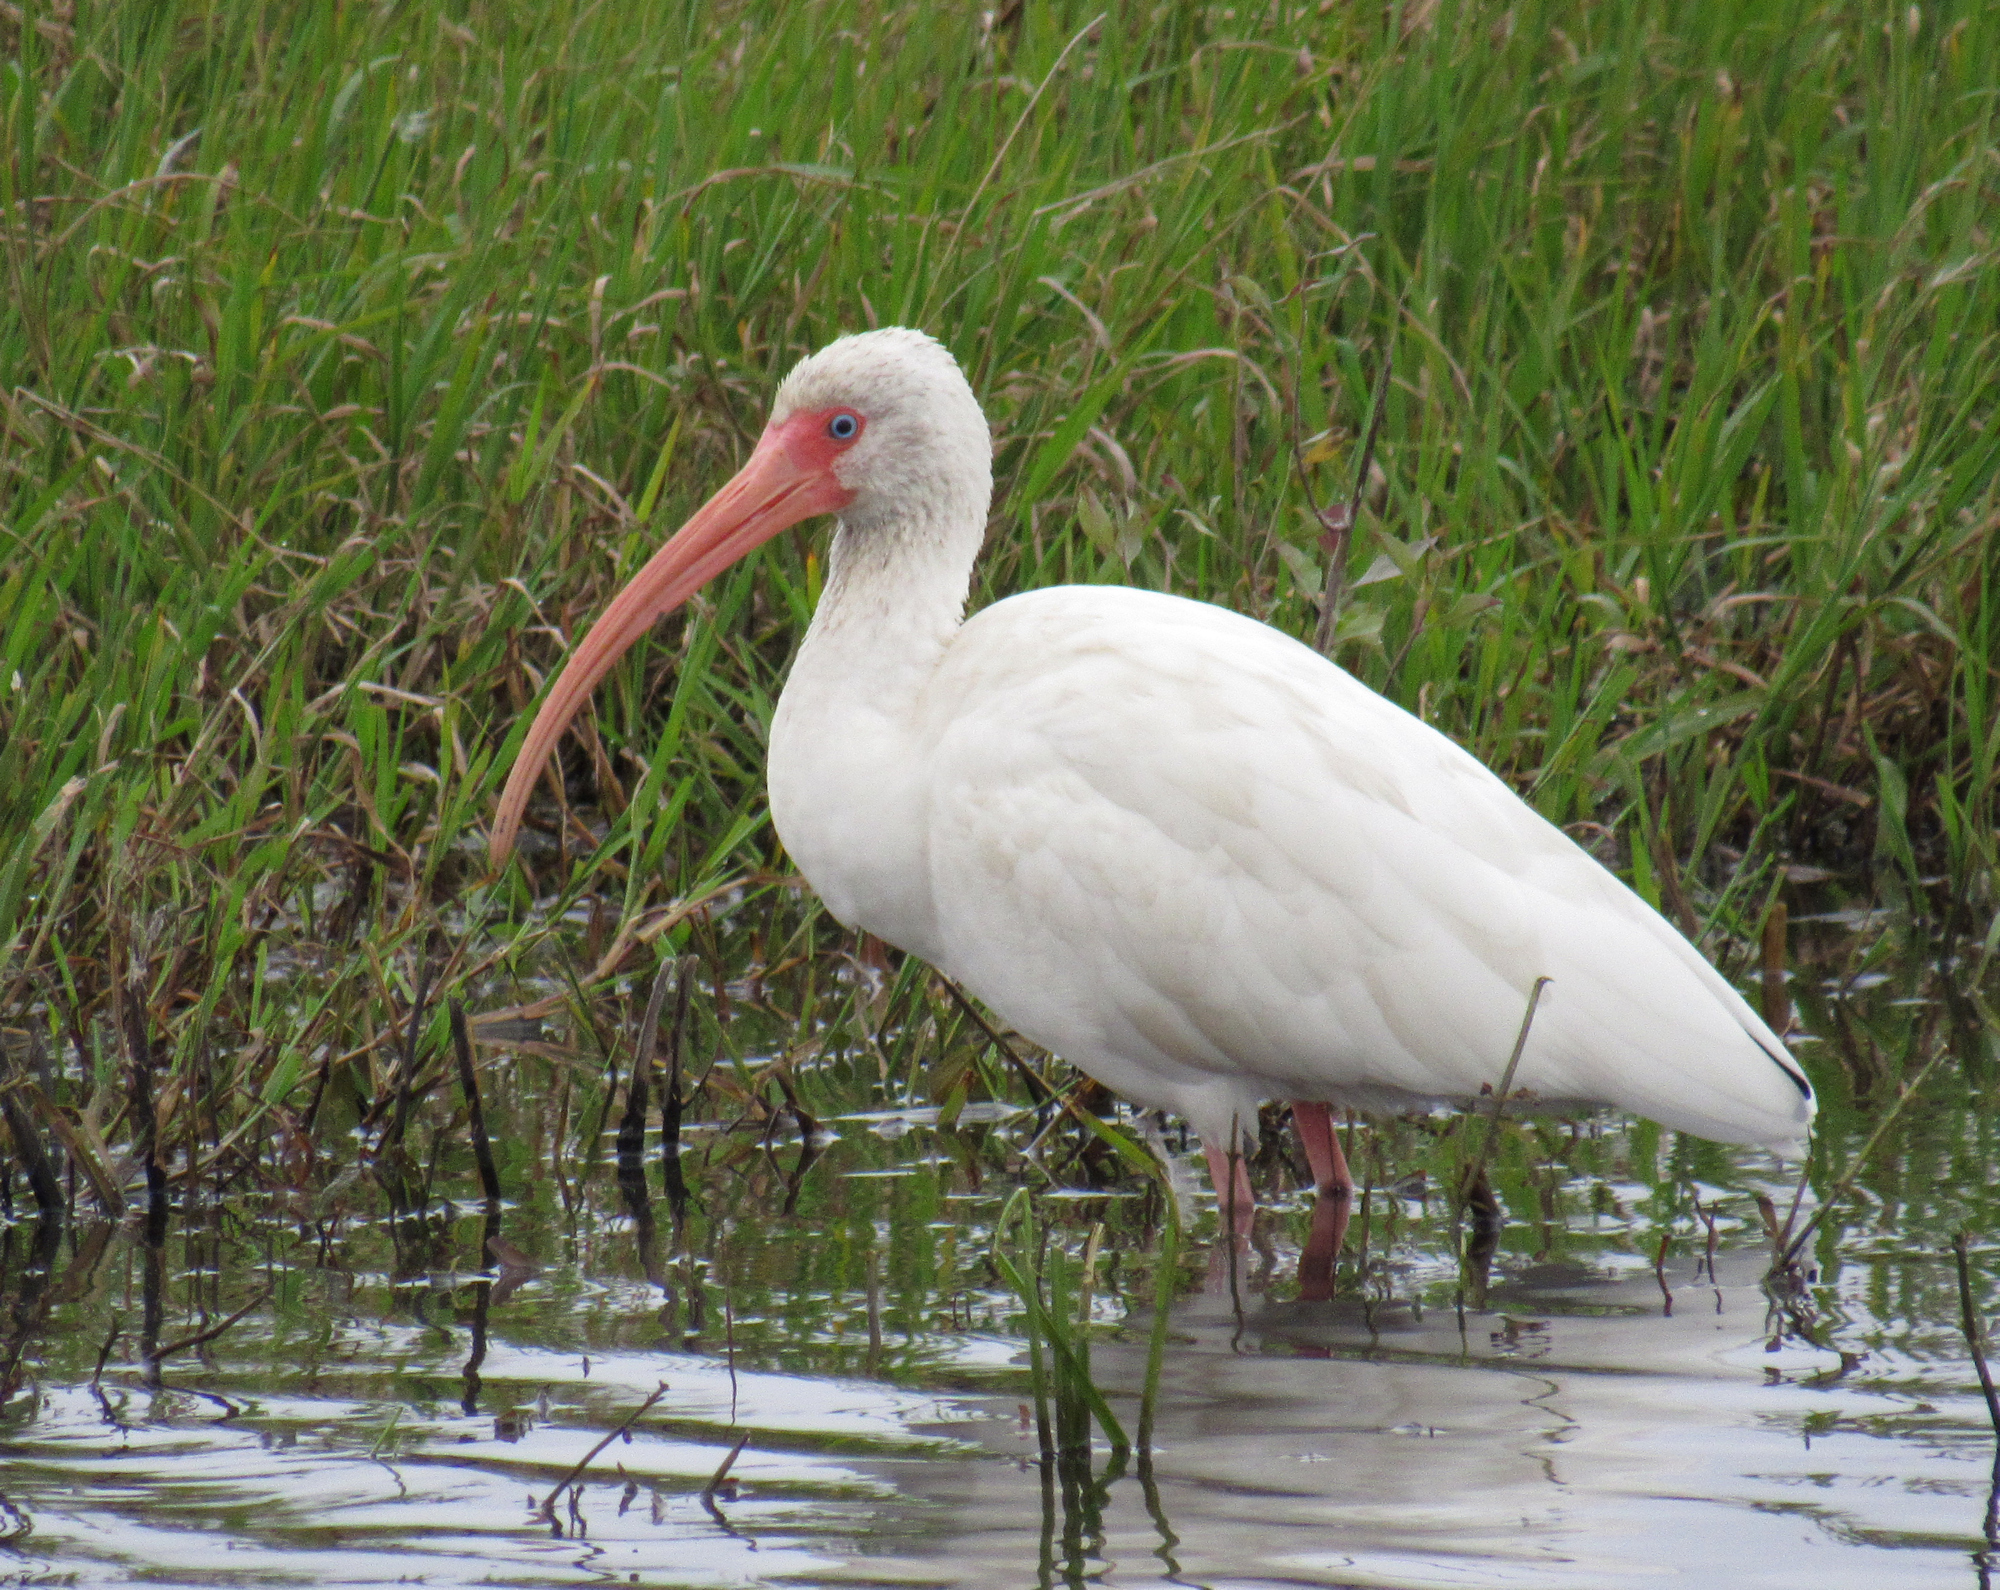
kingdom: Animalia
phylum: Chordata
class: Aves
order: Pelecaniformes
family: Threskiornithidae
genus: Eudocimus
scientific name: Eudocimus albus
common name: White ibis
